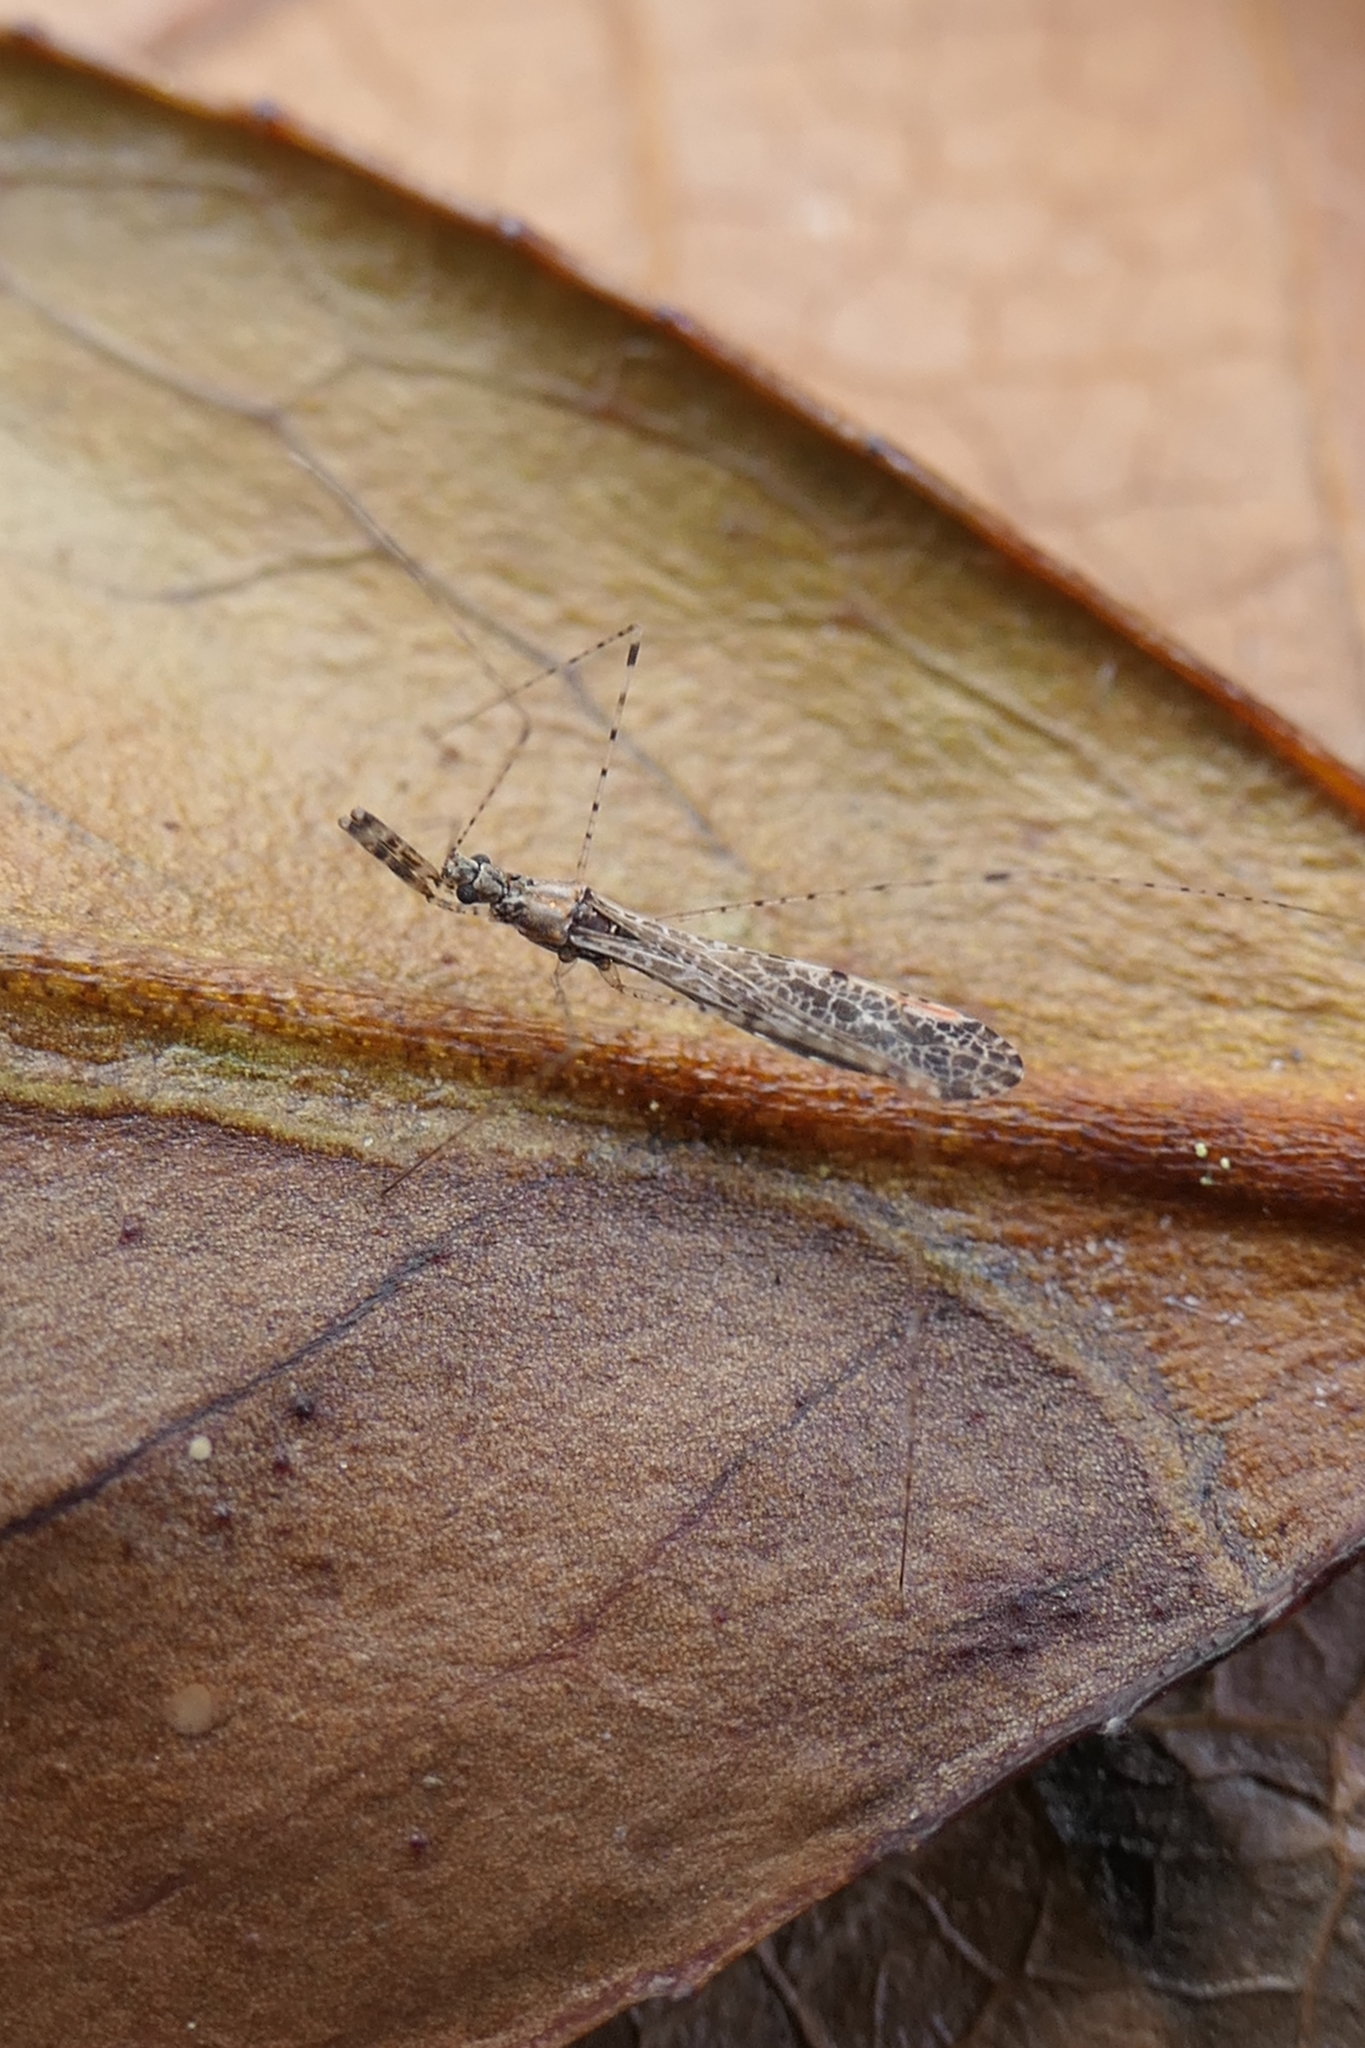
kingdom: Animalia
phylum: Arthropoda
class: Insecta
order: Hemiptera
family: Reduviidae
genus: Empicoris
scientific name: Empicoris rubromaculatus
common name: Thread-legged bug
